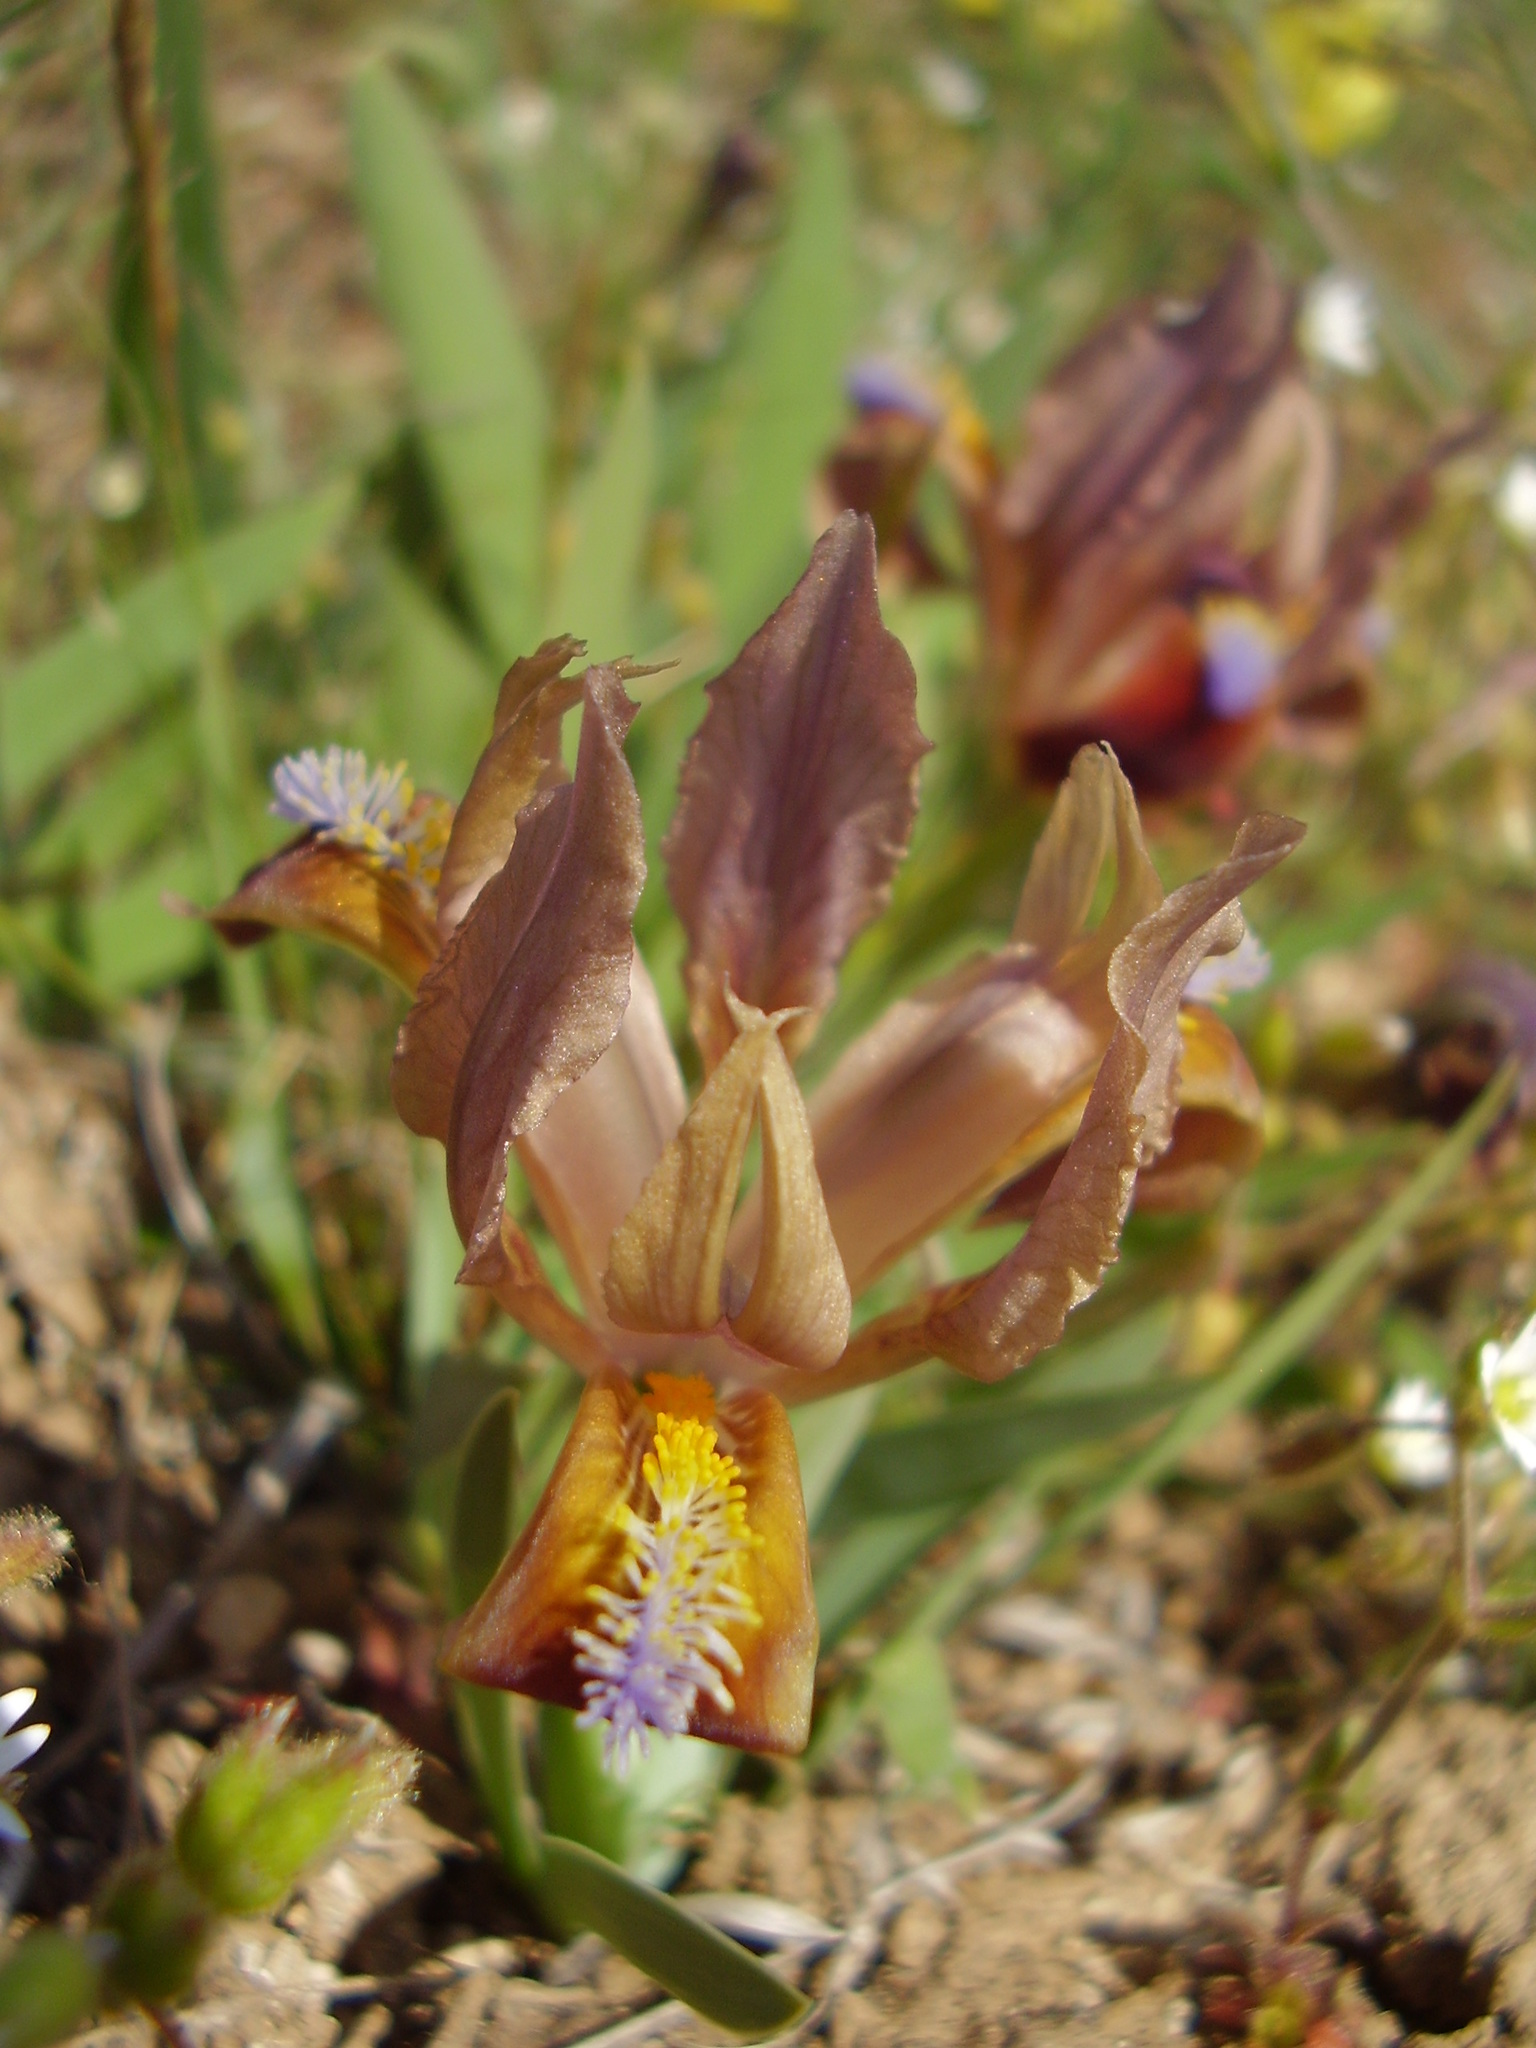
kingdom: Plantae
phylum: Tracheophyta
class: Liliopsida
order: Asparagales
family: Iridaceae
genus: Iris
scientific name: Iris pumila
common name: Dwarf iris
